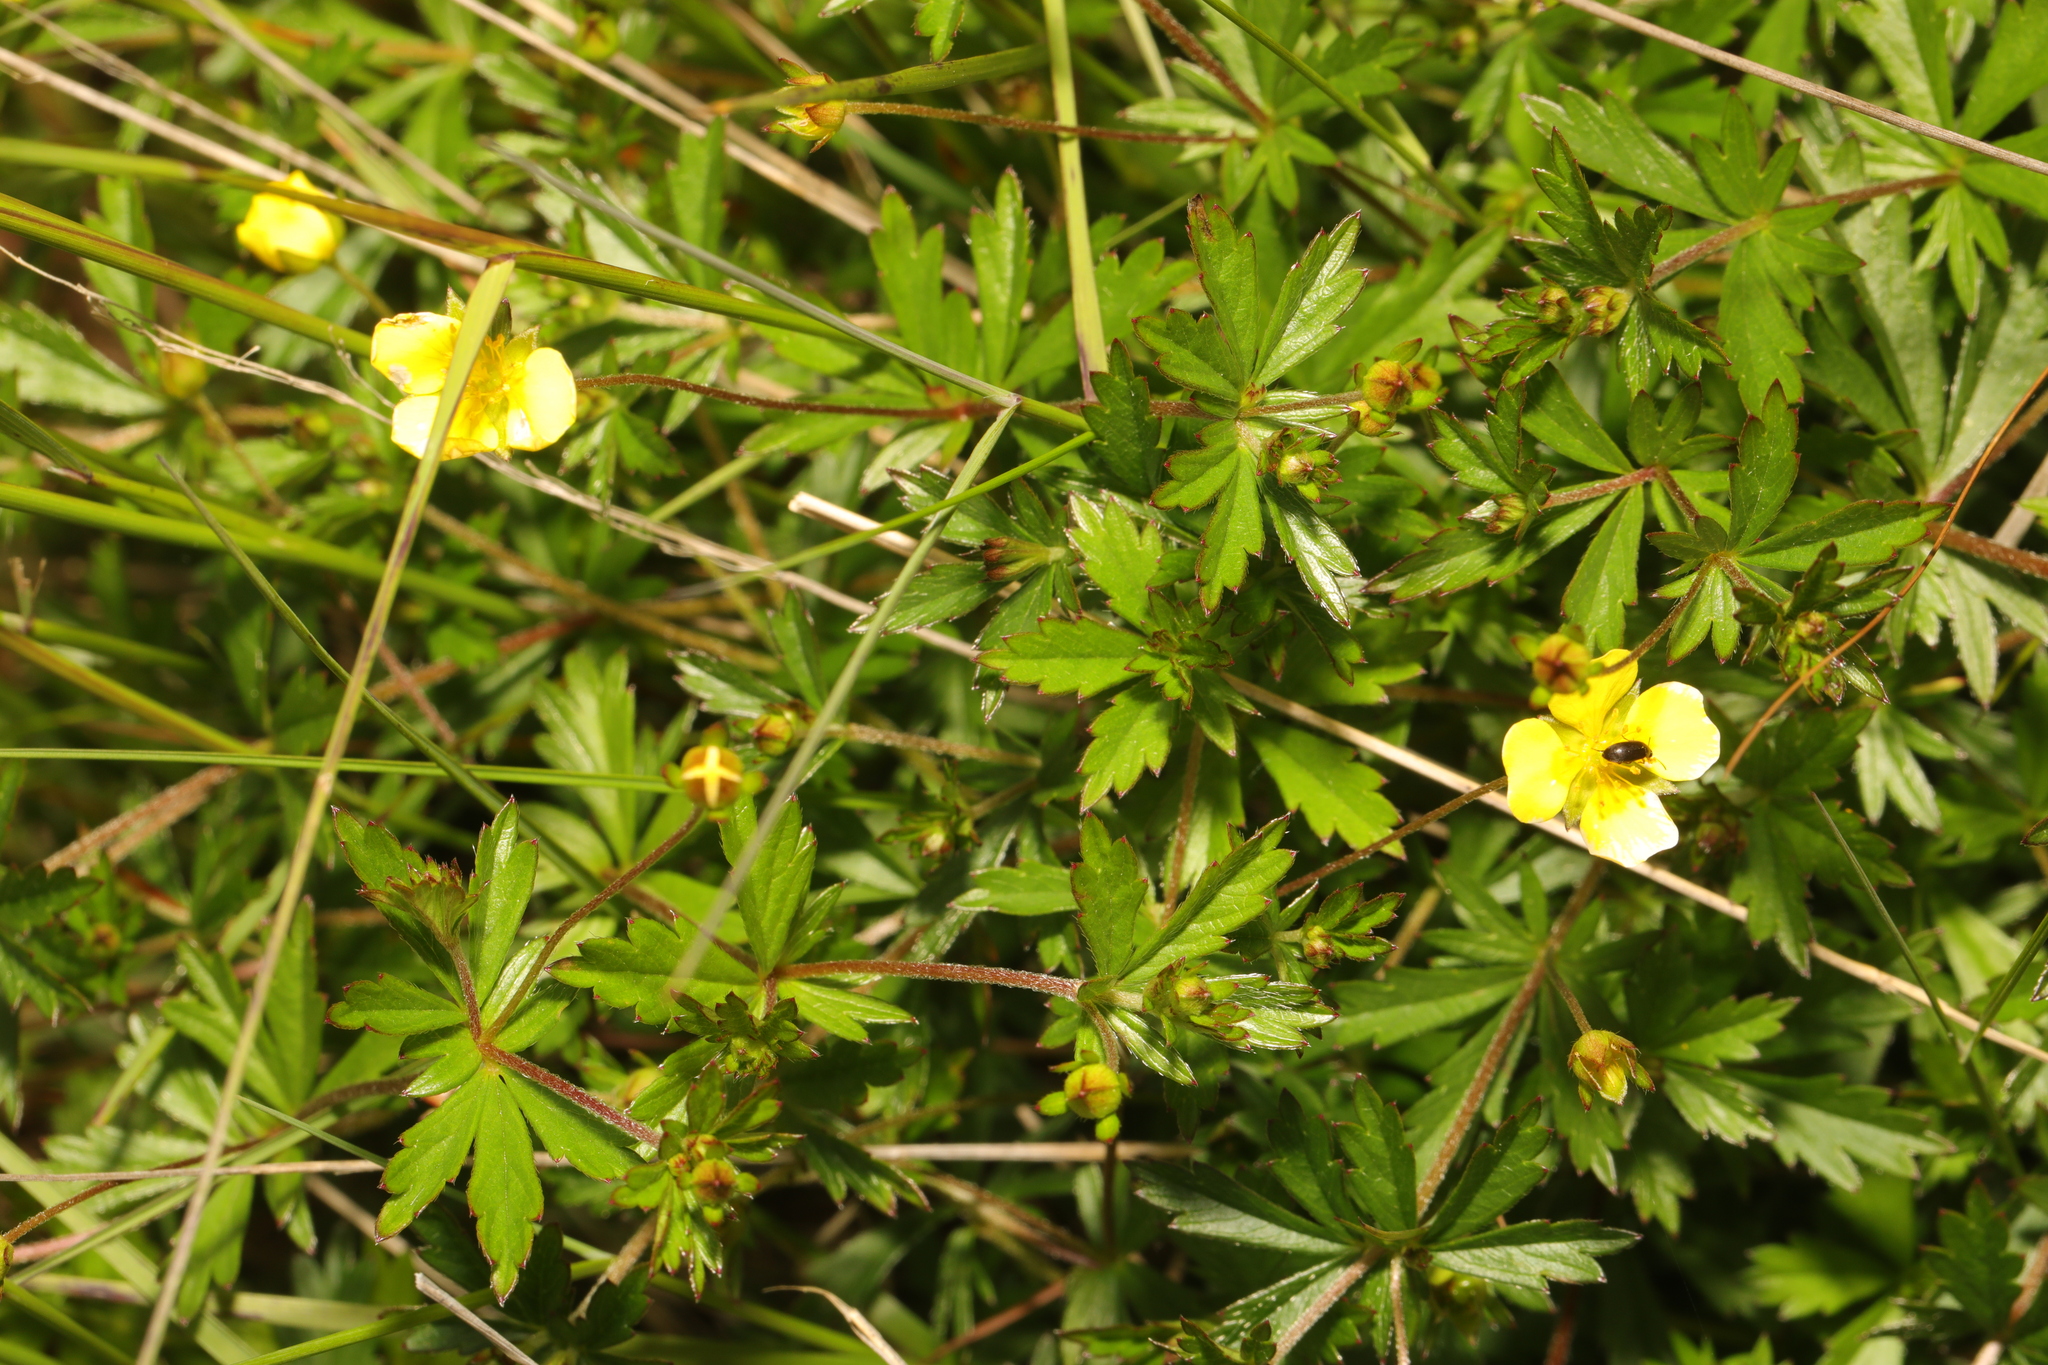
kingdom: Plantae
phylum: Tracheophyta
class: Magnoliopsida
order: Rosales
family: Rosaceae
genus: Potentilla
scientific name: Potentilla erecta
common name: Tormentil
